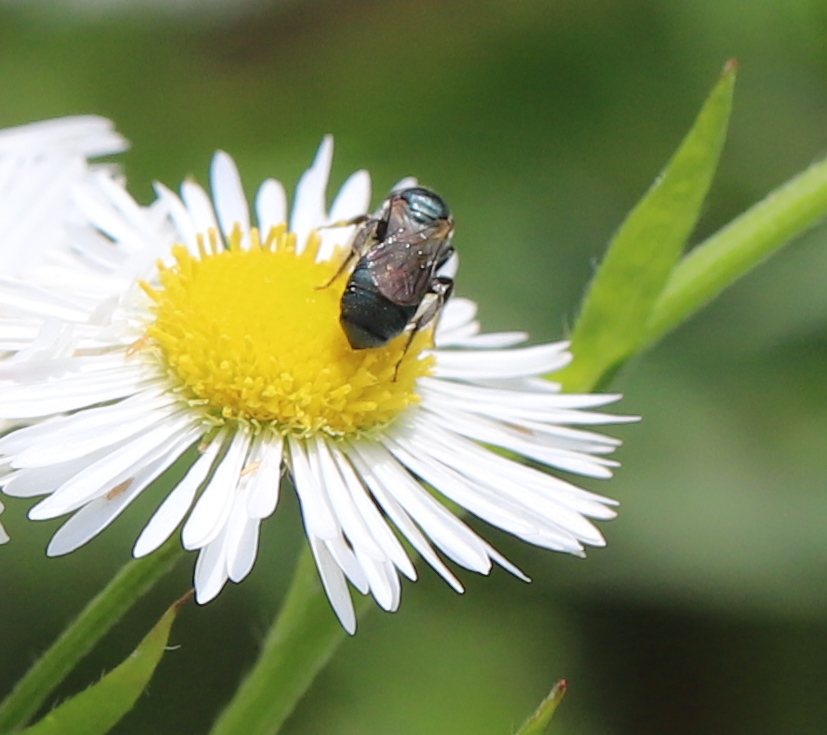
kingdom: Animalia
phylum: Arthropoda
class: Insecta
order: Hymenoptera
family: Apidae
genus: Zadontomerus
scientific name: Zadontomerus
